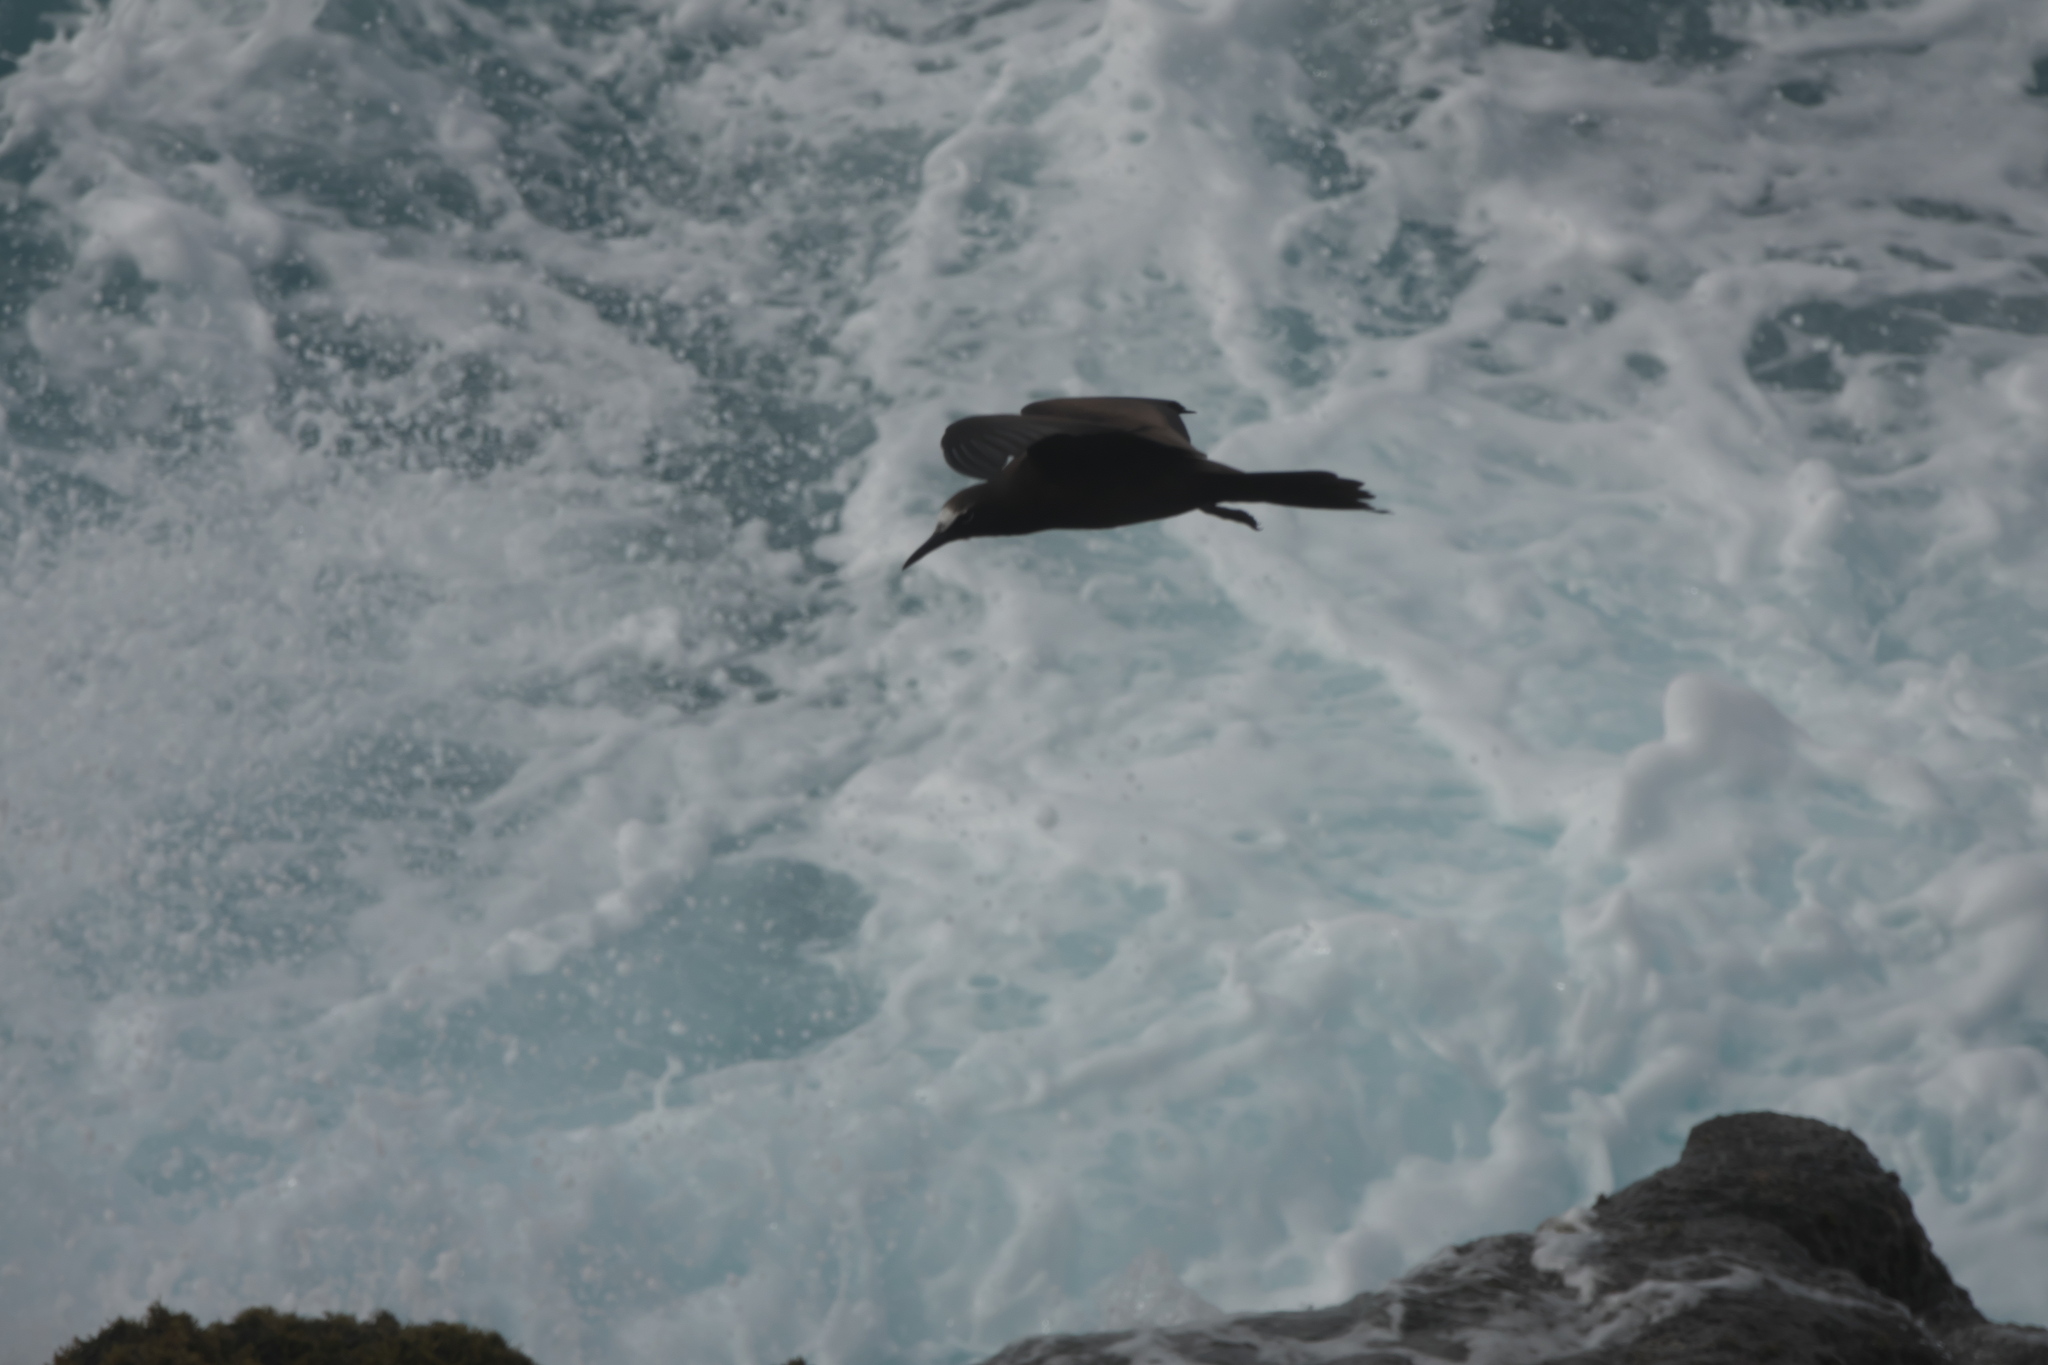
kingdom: Animalia
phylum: Chordata
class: Aves
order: Charadriiformes
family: Laridae
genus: Anous
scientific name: Anous minutus
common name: Black noddy
